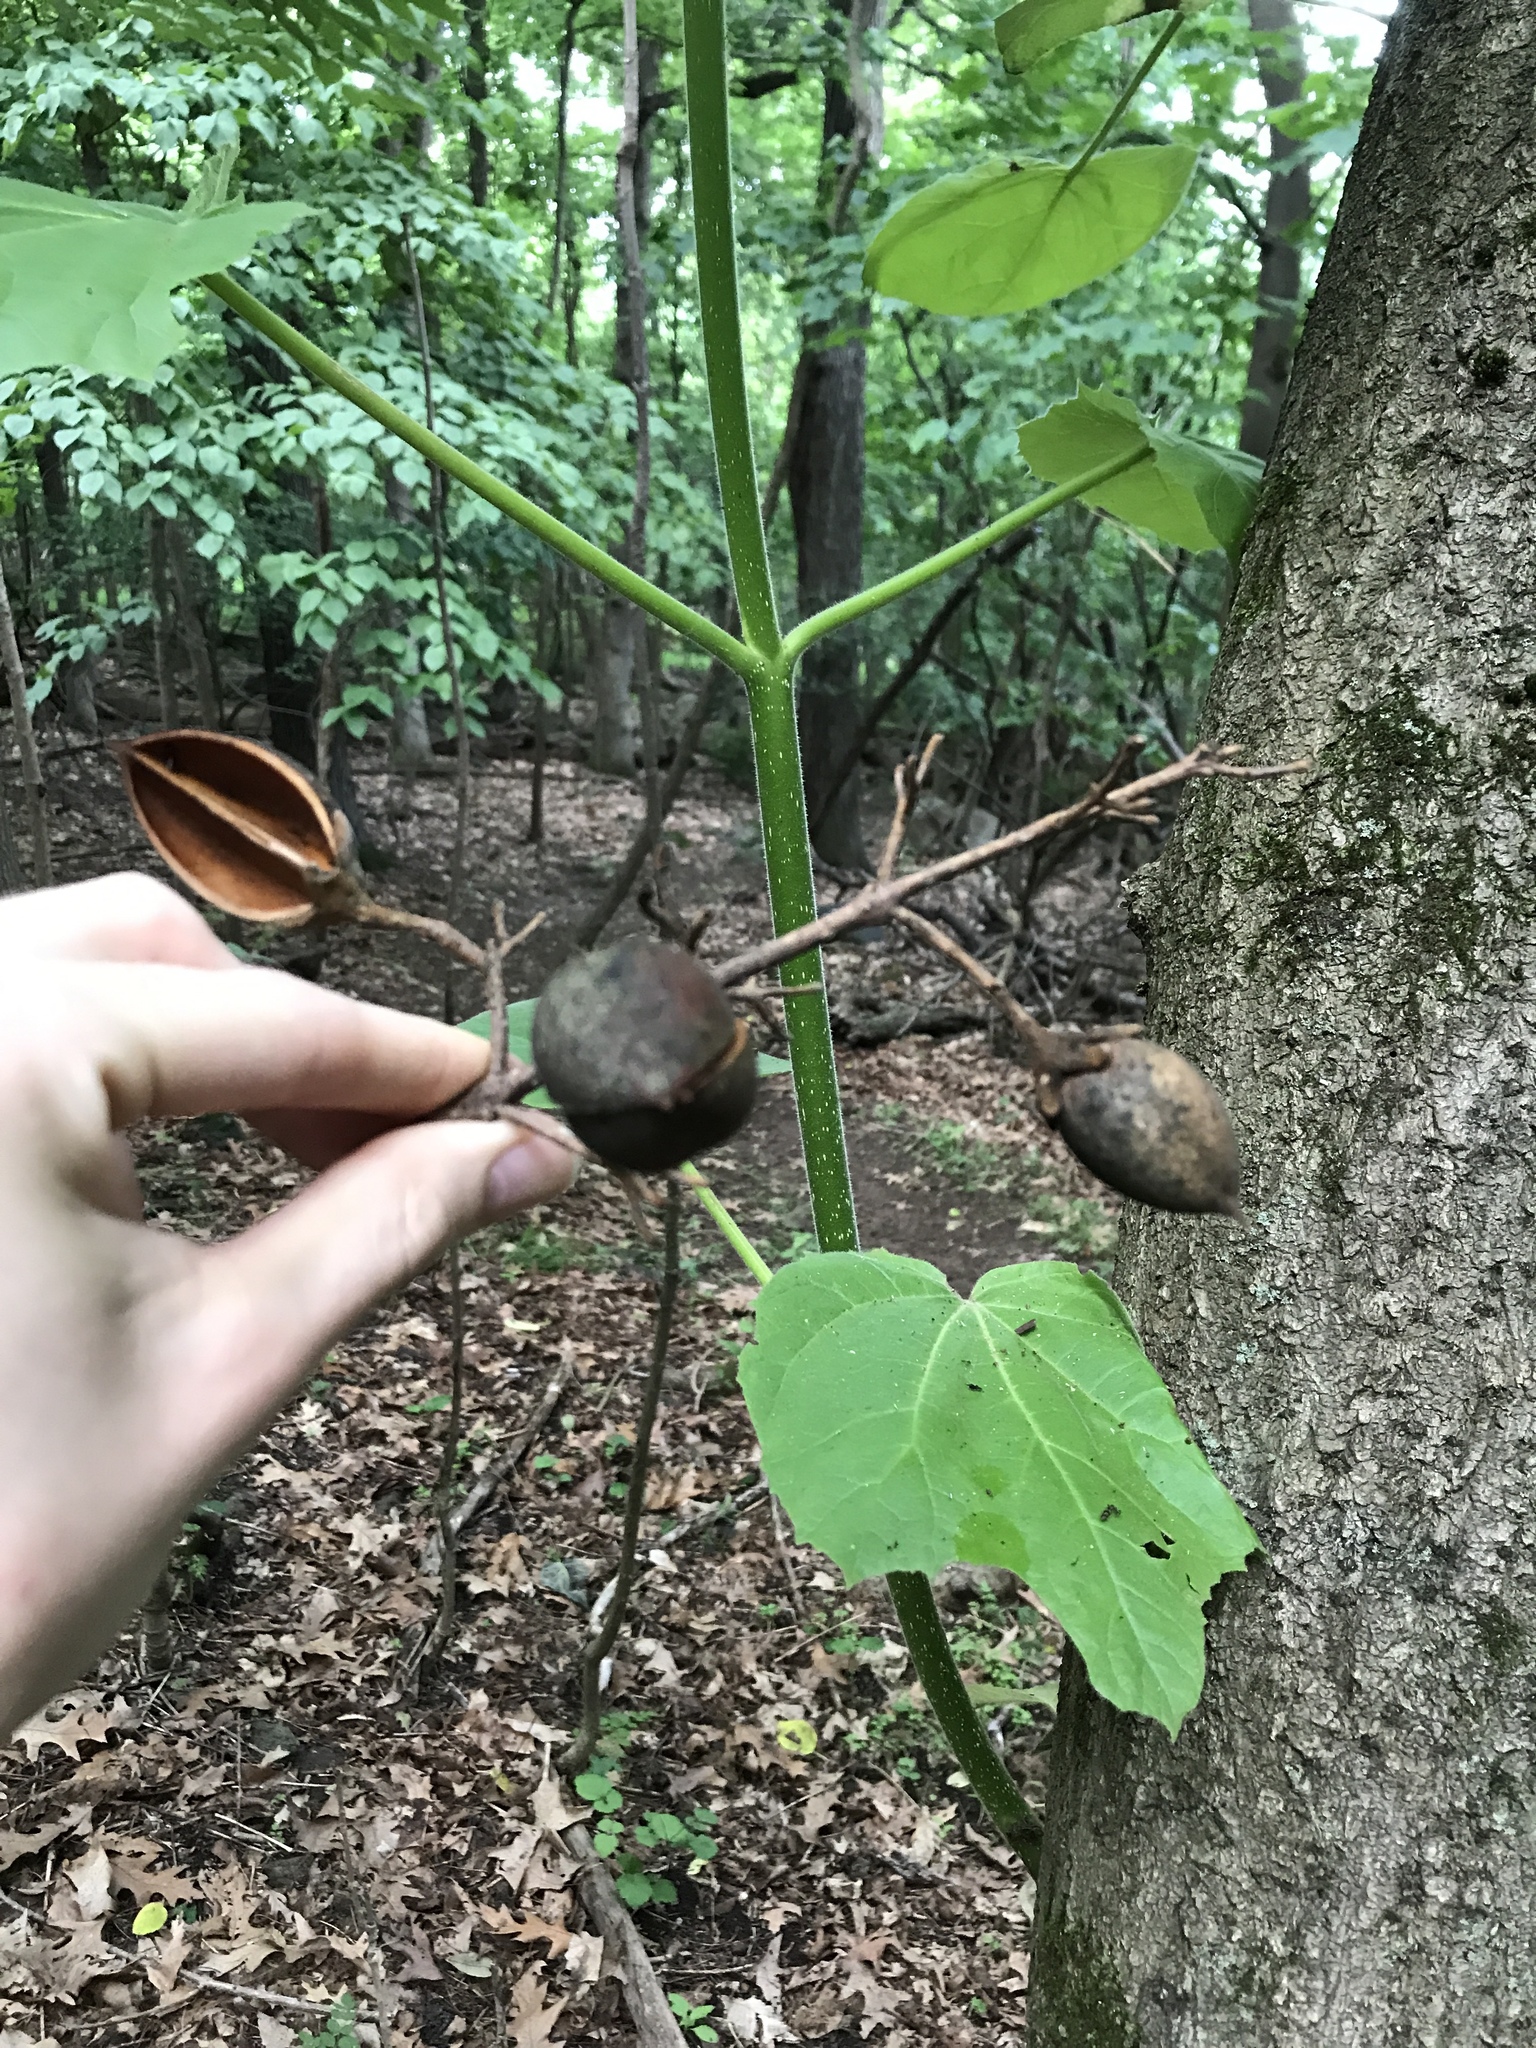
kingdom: Plantae
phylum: Tracheophyta
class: Magnoliopsida
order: Lamiales
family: Paulowniaceae
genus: Paulownia
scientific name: Paulownia tomentosa
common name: Foxglove-tree
